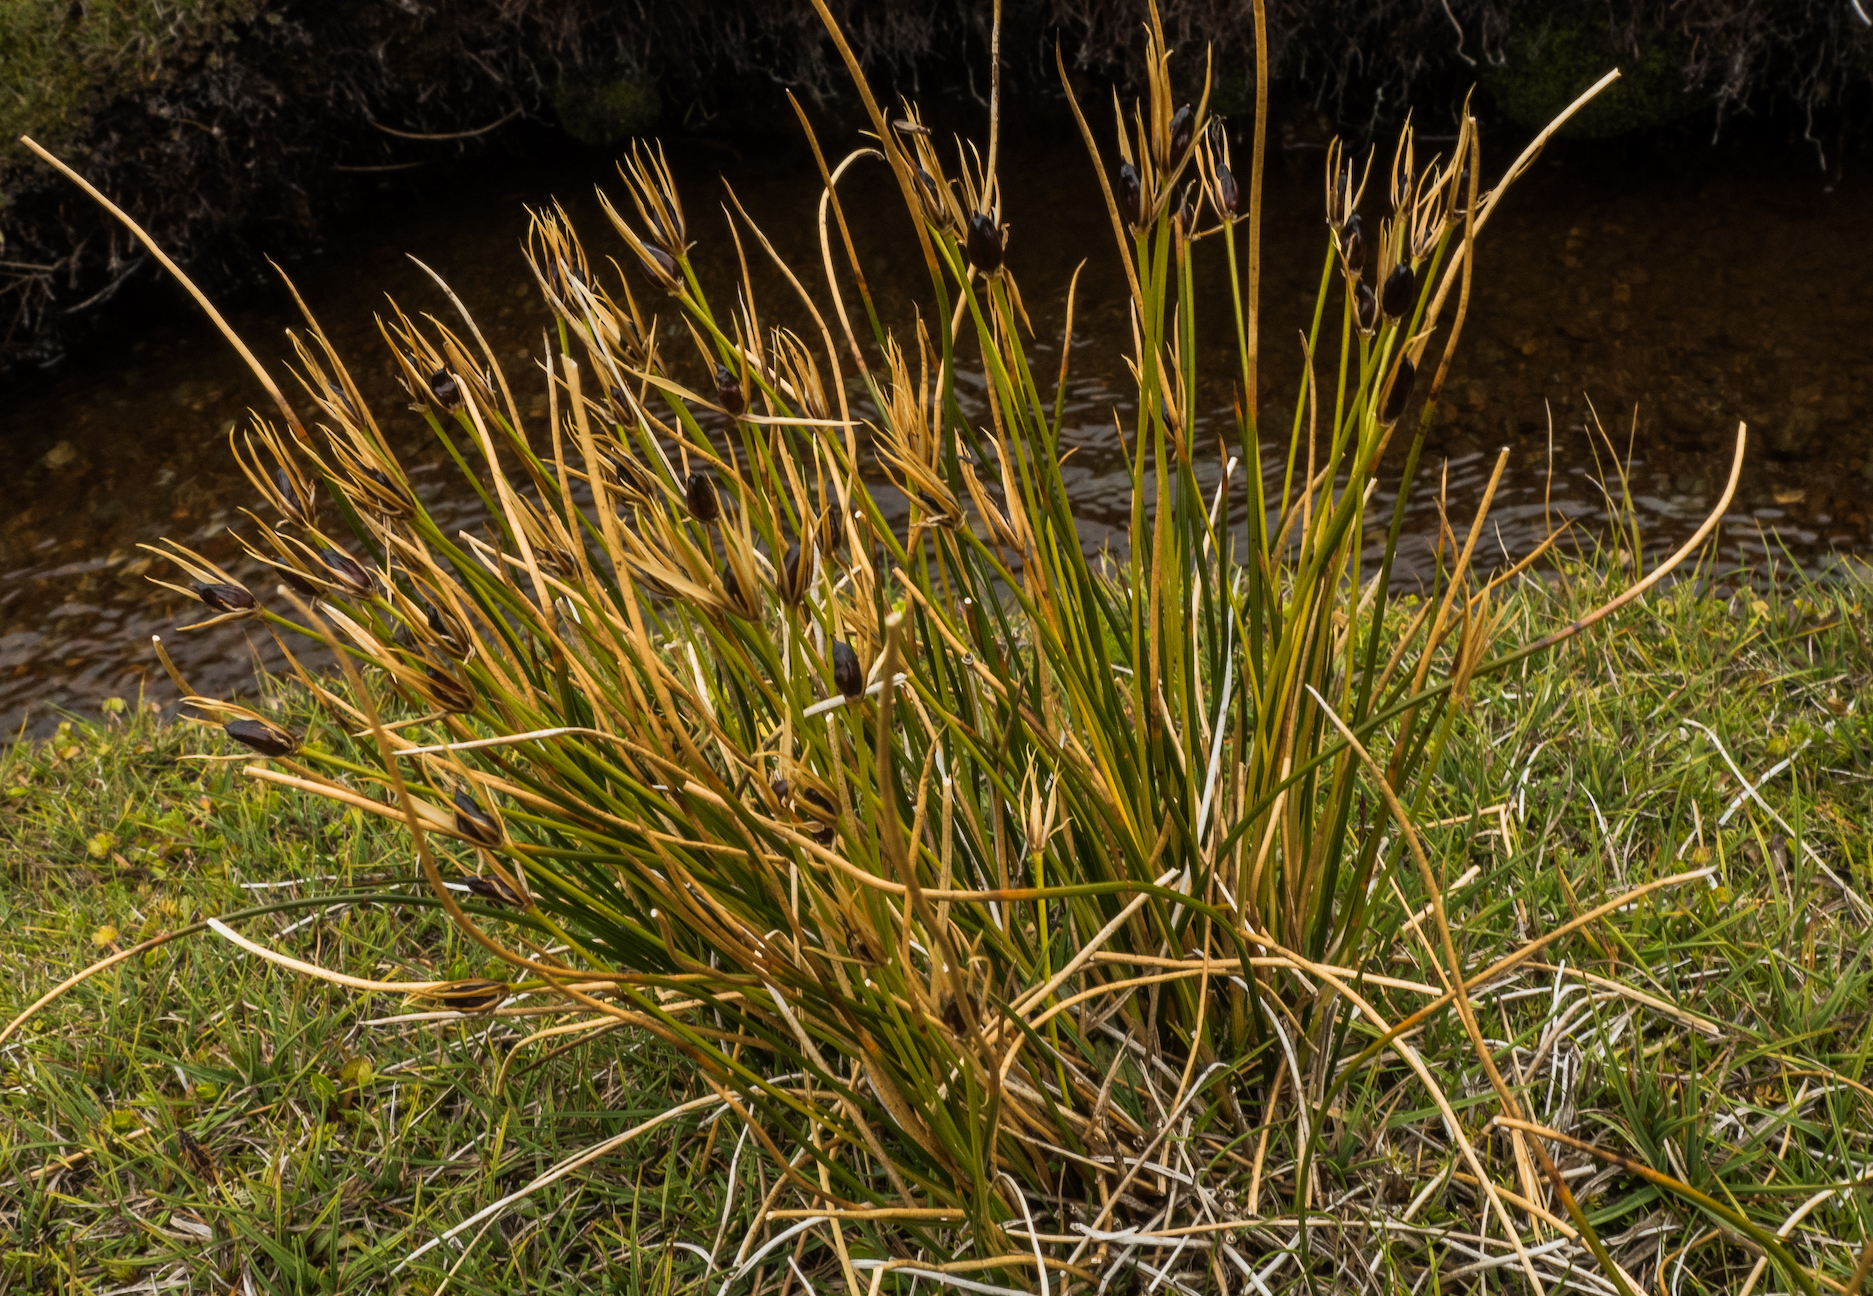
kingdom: Plantae
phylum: Tracheophyta
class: Liliopsida
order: Poales
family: Juncaceae
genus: Marsippospermum
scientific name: Marsippospermum gracile
